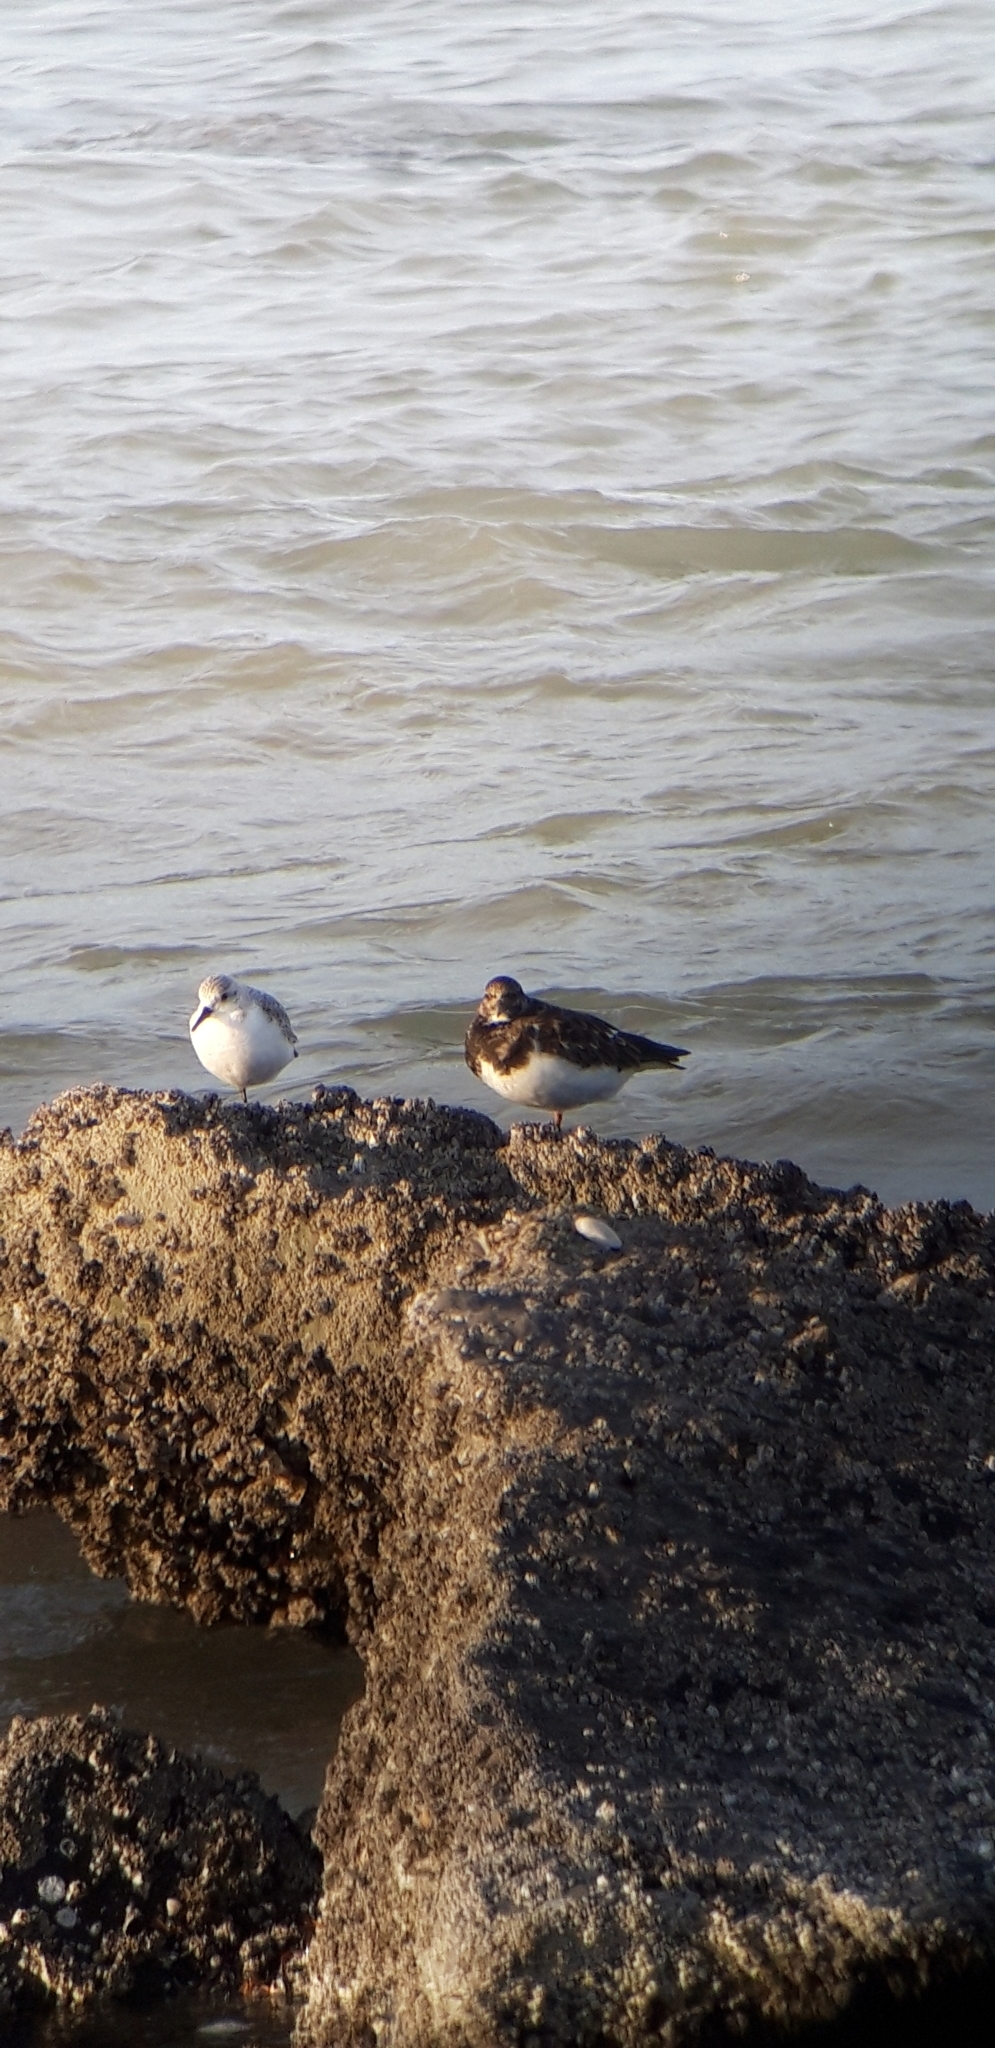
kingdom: Animalia
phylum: Chordata
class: Aves
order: Charadriiformes
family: Scolopacidae
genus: Calidris
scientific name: Calidris alba
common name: Sanderling
